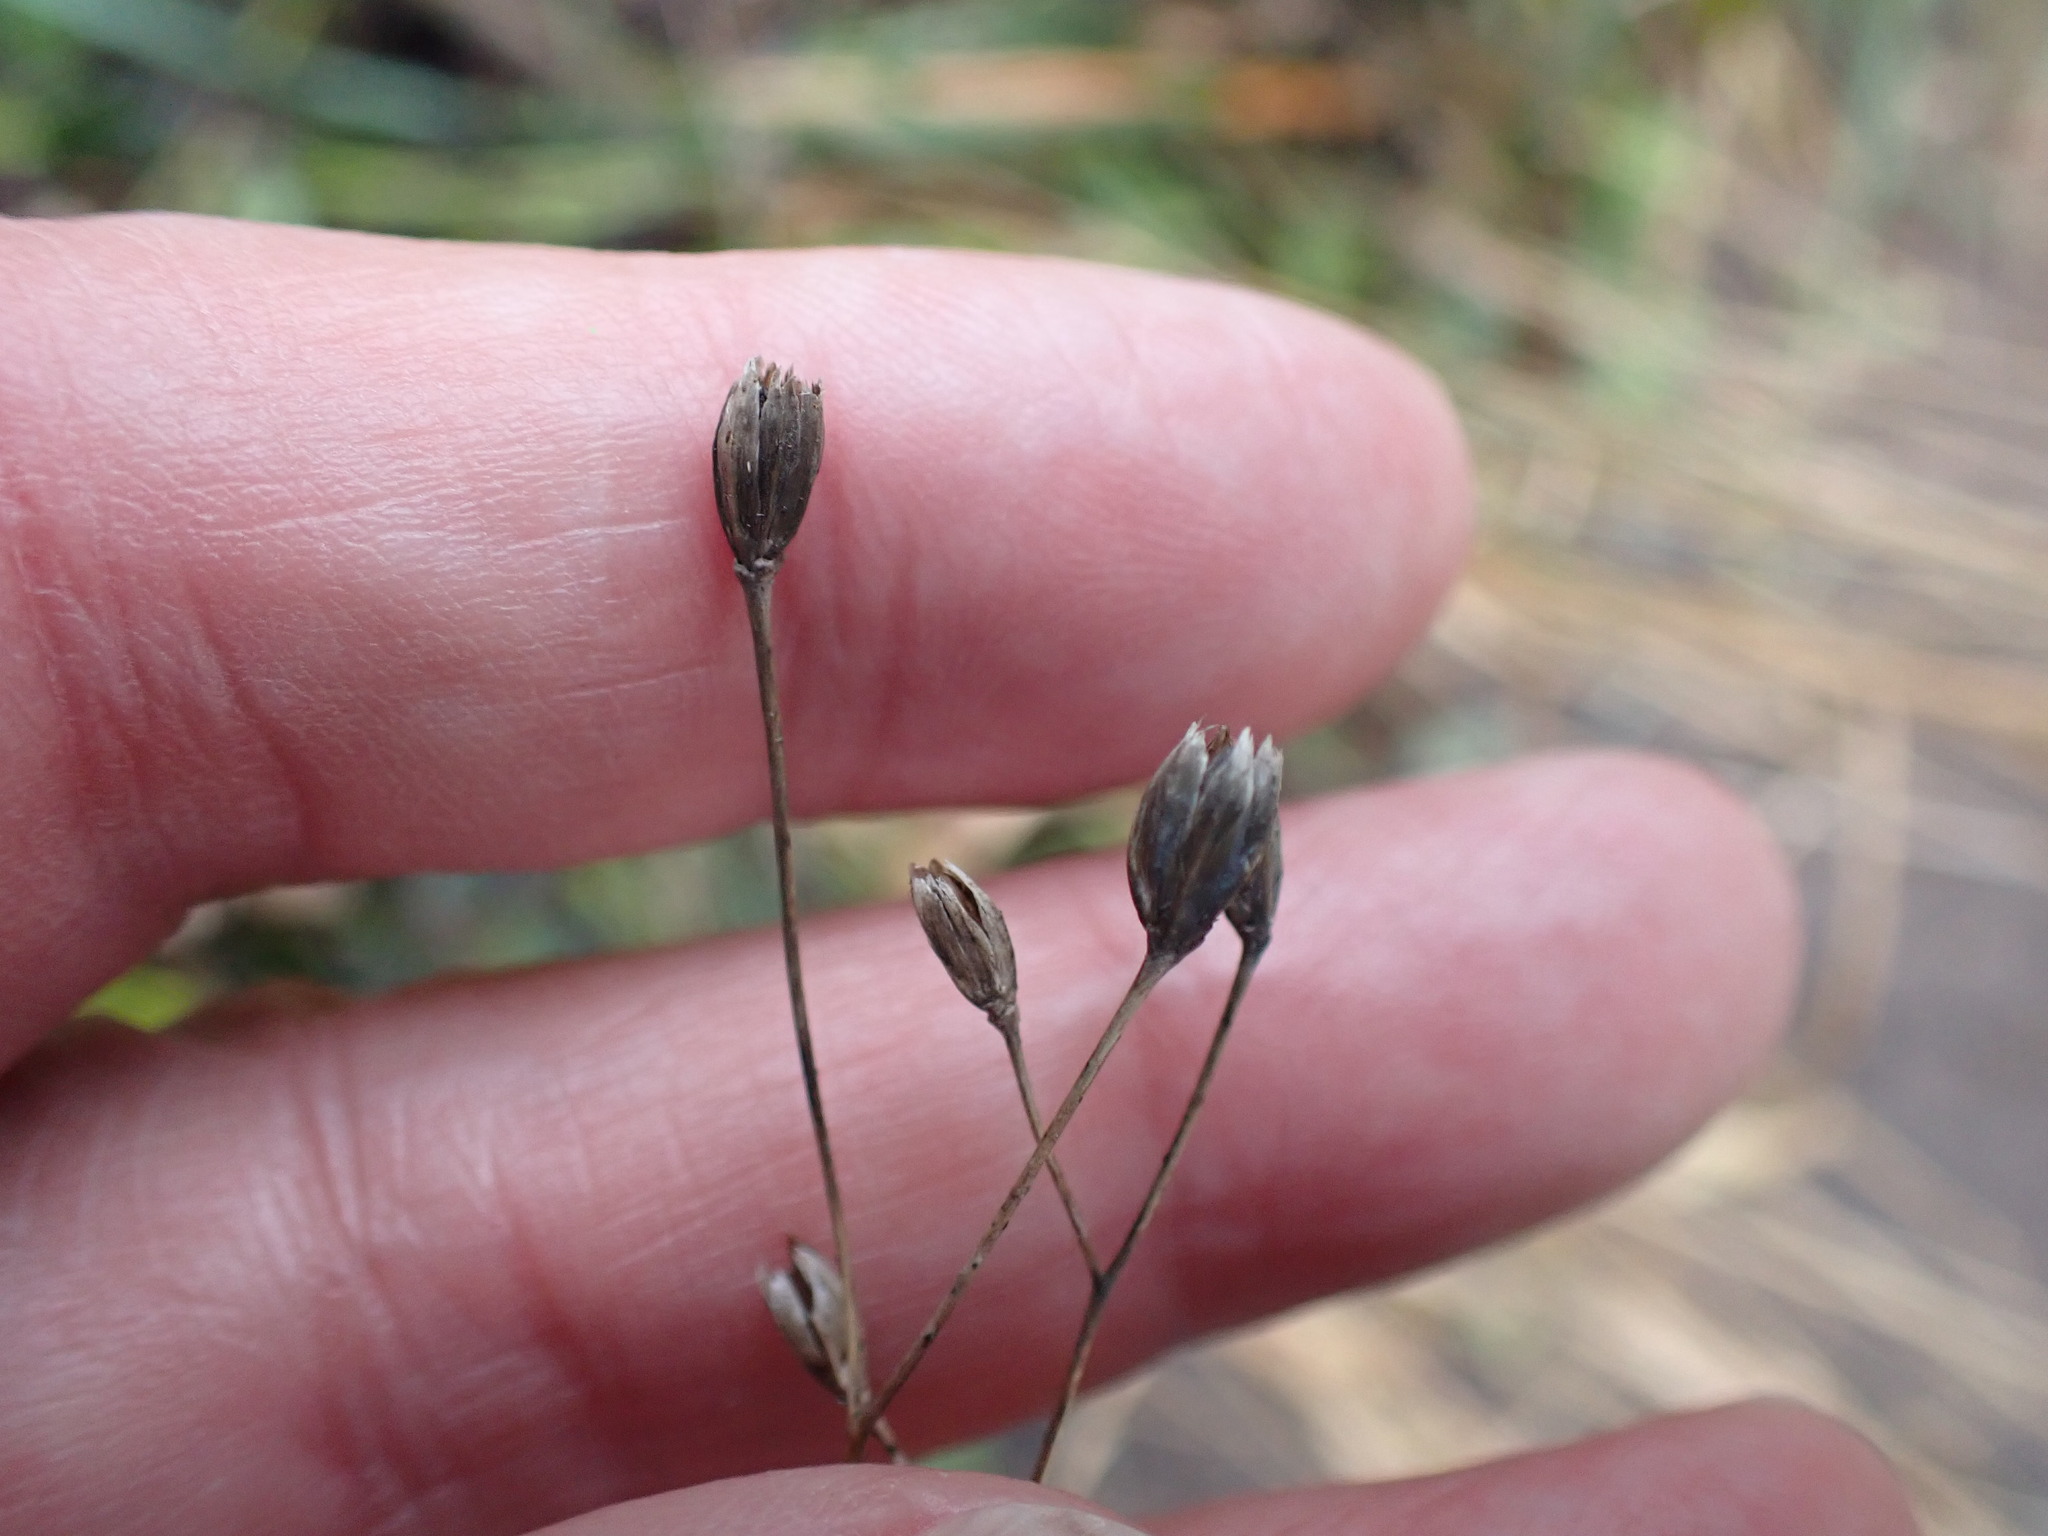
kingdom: Plantae
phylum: Tracheophyta
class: Magnoliopsida
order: Asterales
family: Asteraceae
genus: Lapsana
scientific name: Lapsana communis
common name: Nipplewort
